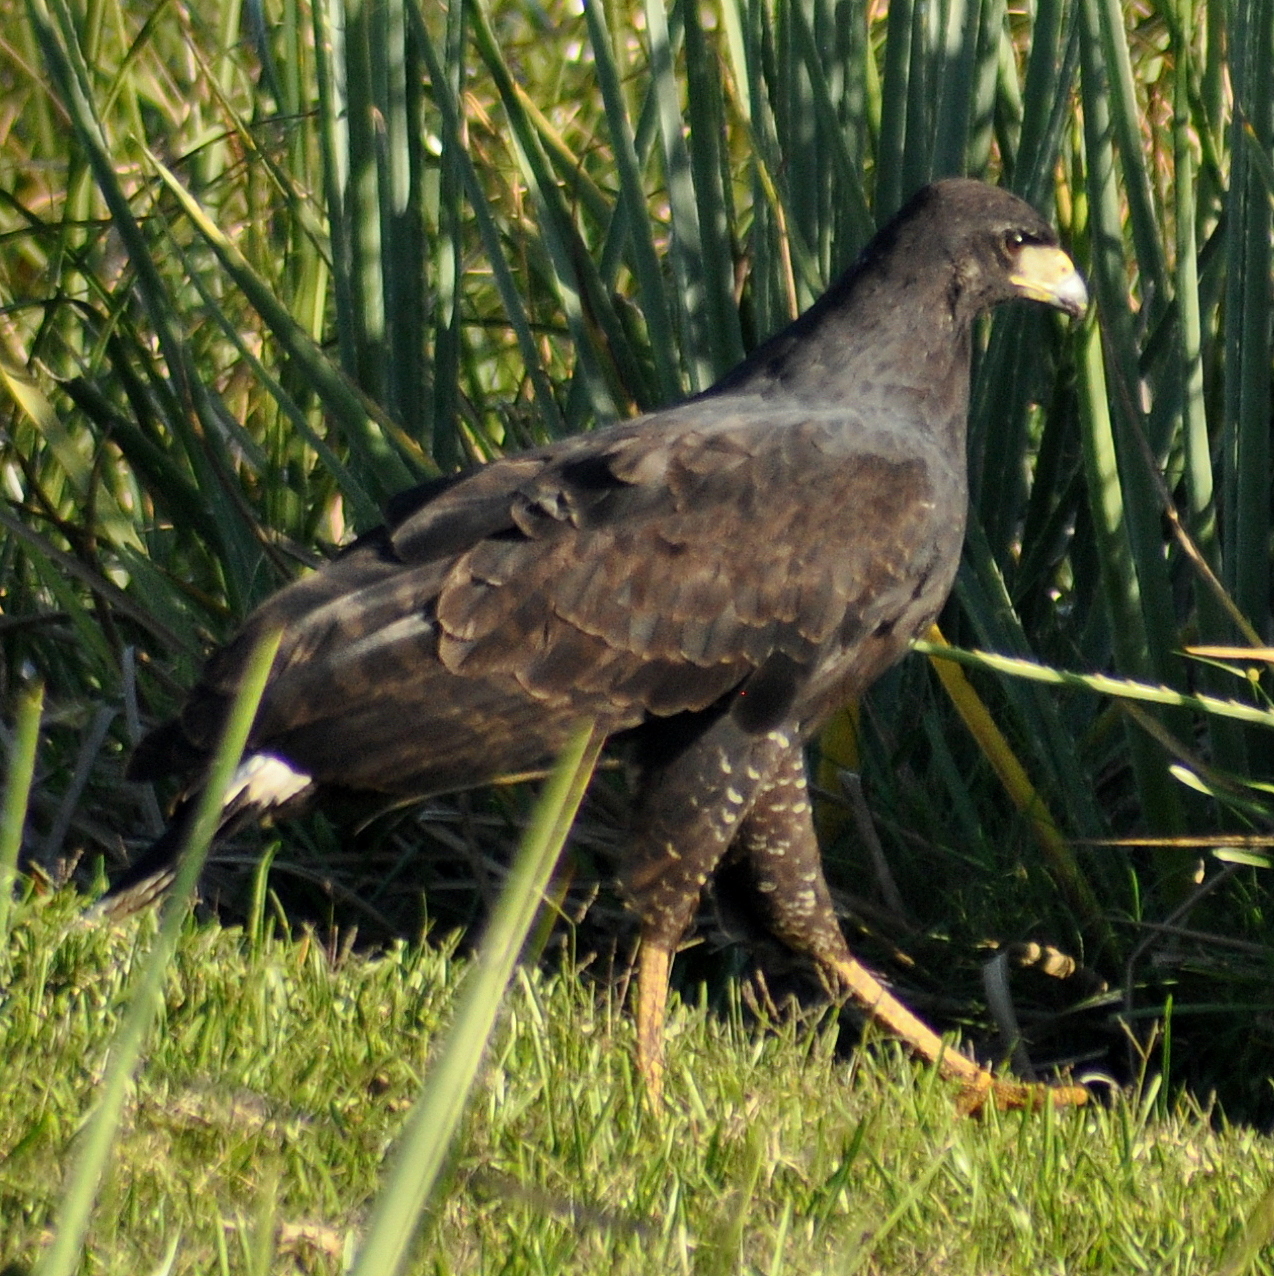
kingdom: Animalia
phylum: Chordata
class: Aves
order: Accipitriformes
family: Accipitridae
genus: Buteogallus
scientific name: Buteogallus urubitinga
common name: Great black hawk
